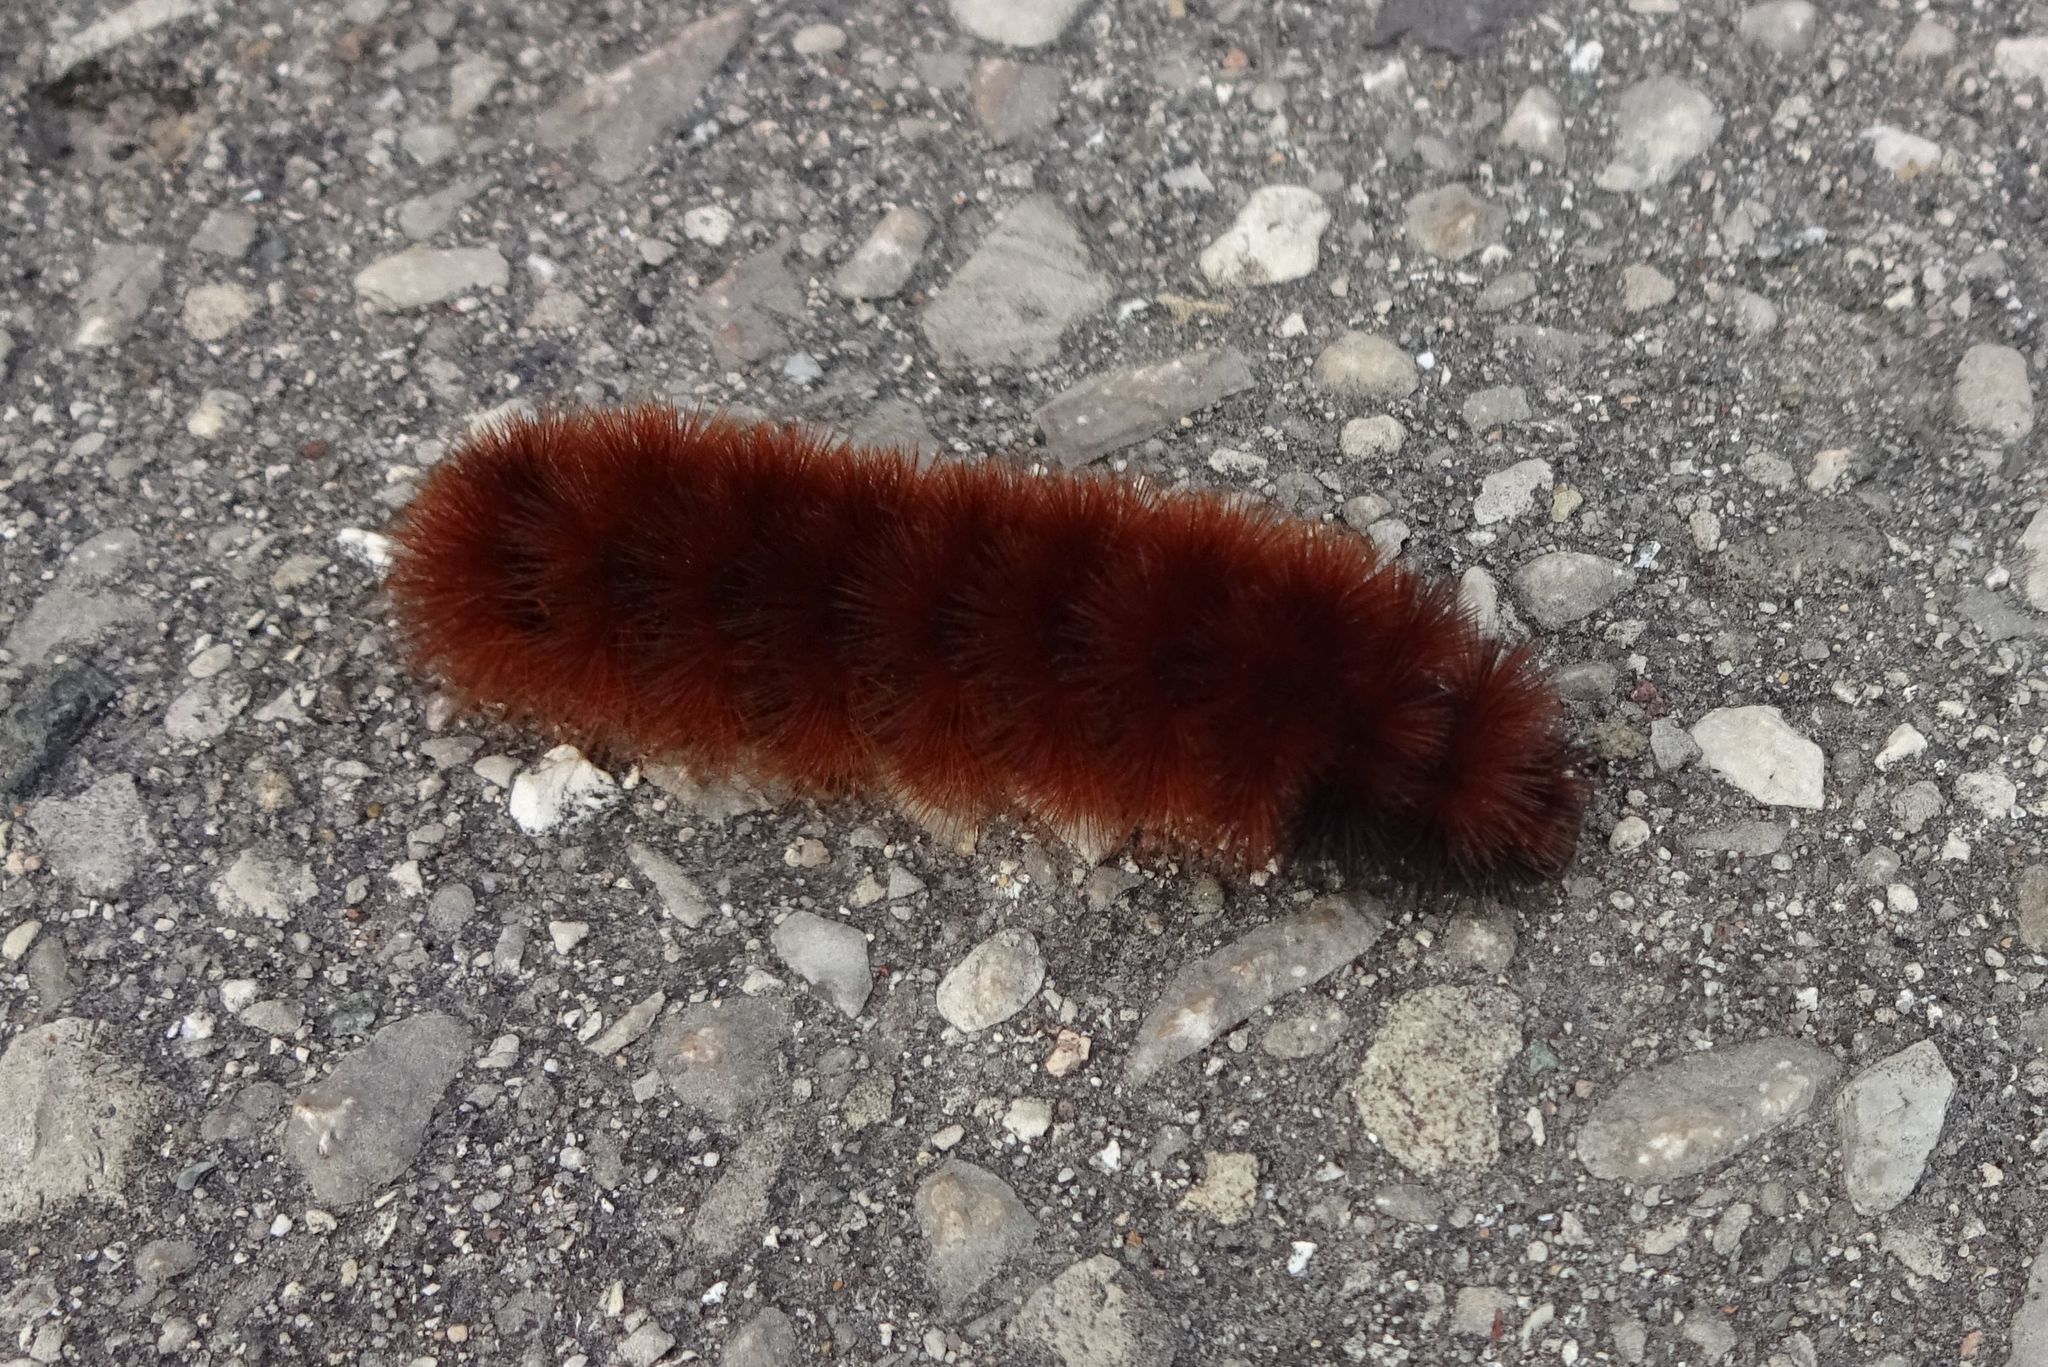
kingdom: Animalia
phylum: Arthropoda
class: Insecta
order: Lepidoptera
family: Erebidae
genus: Pyrrharctia
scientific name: Pyrrharctia isabella
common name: Isabella tiger moth
